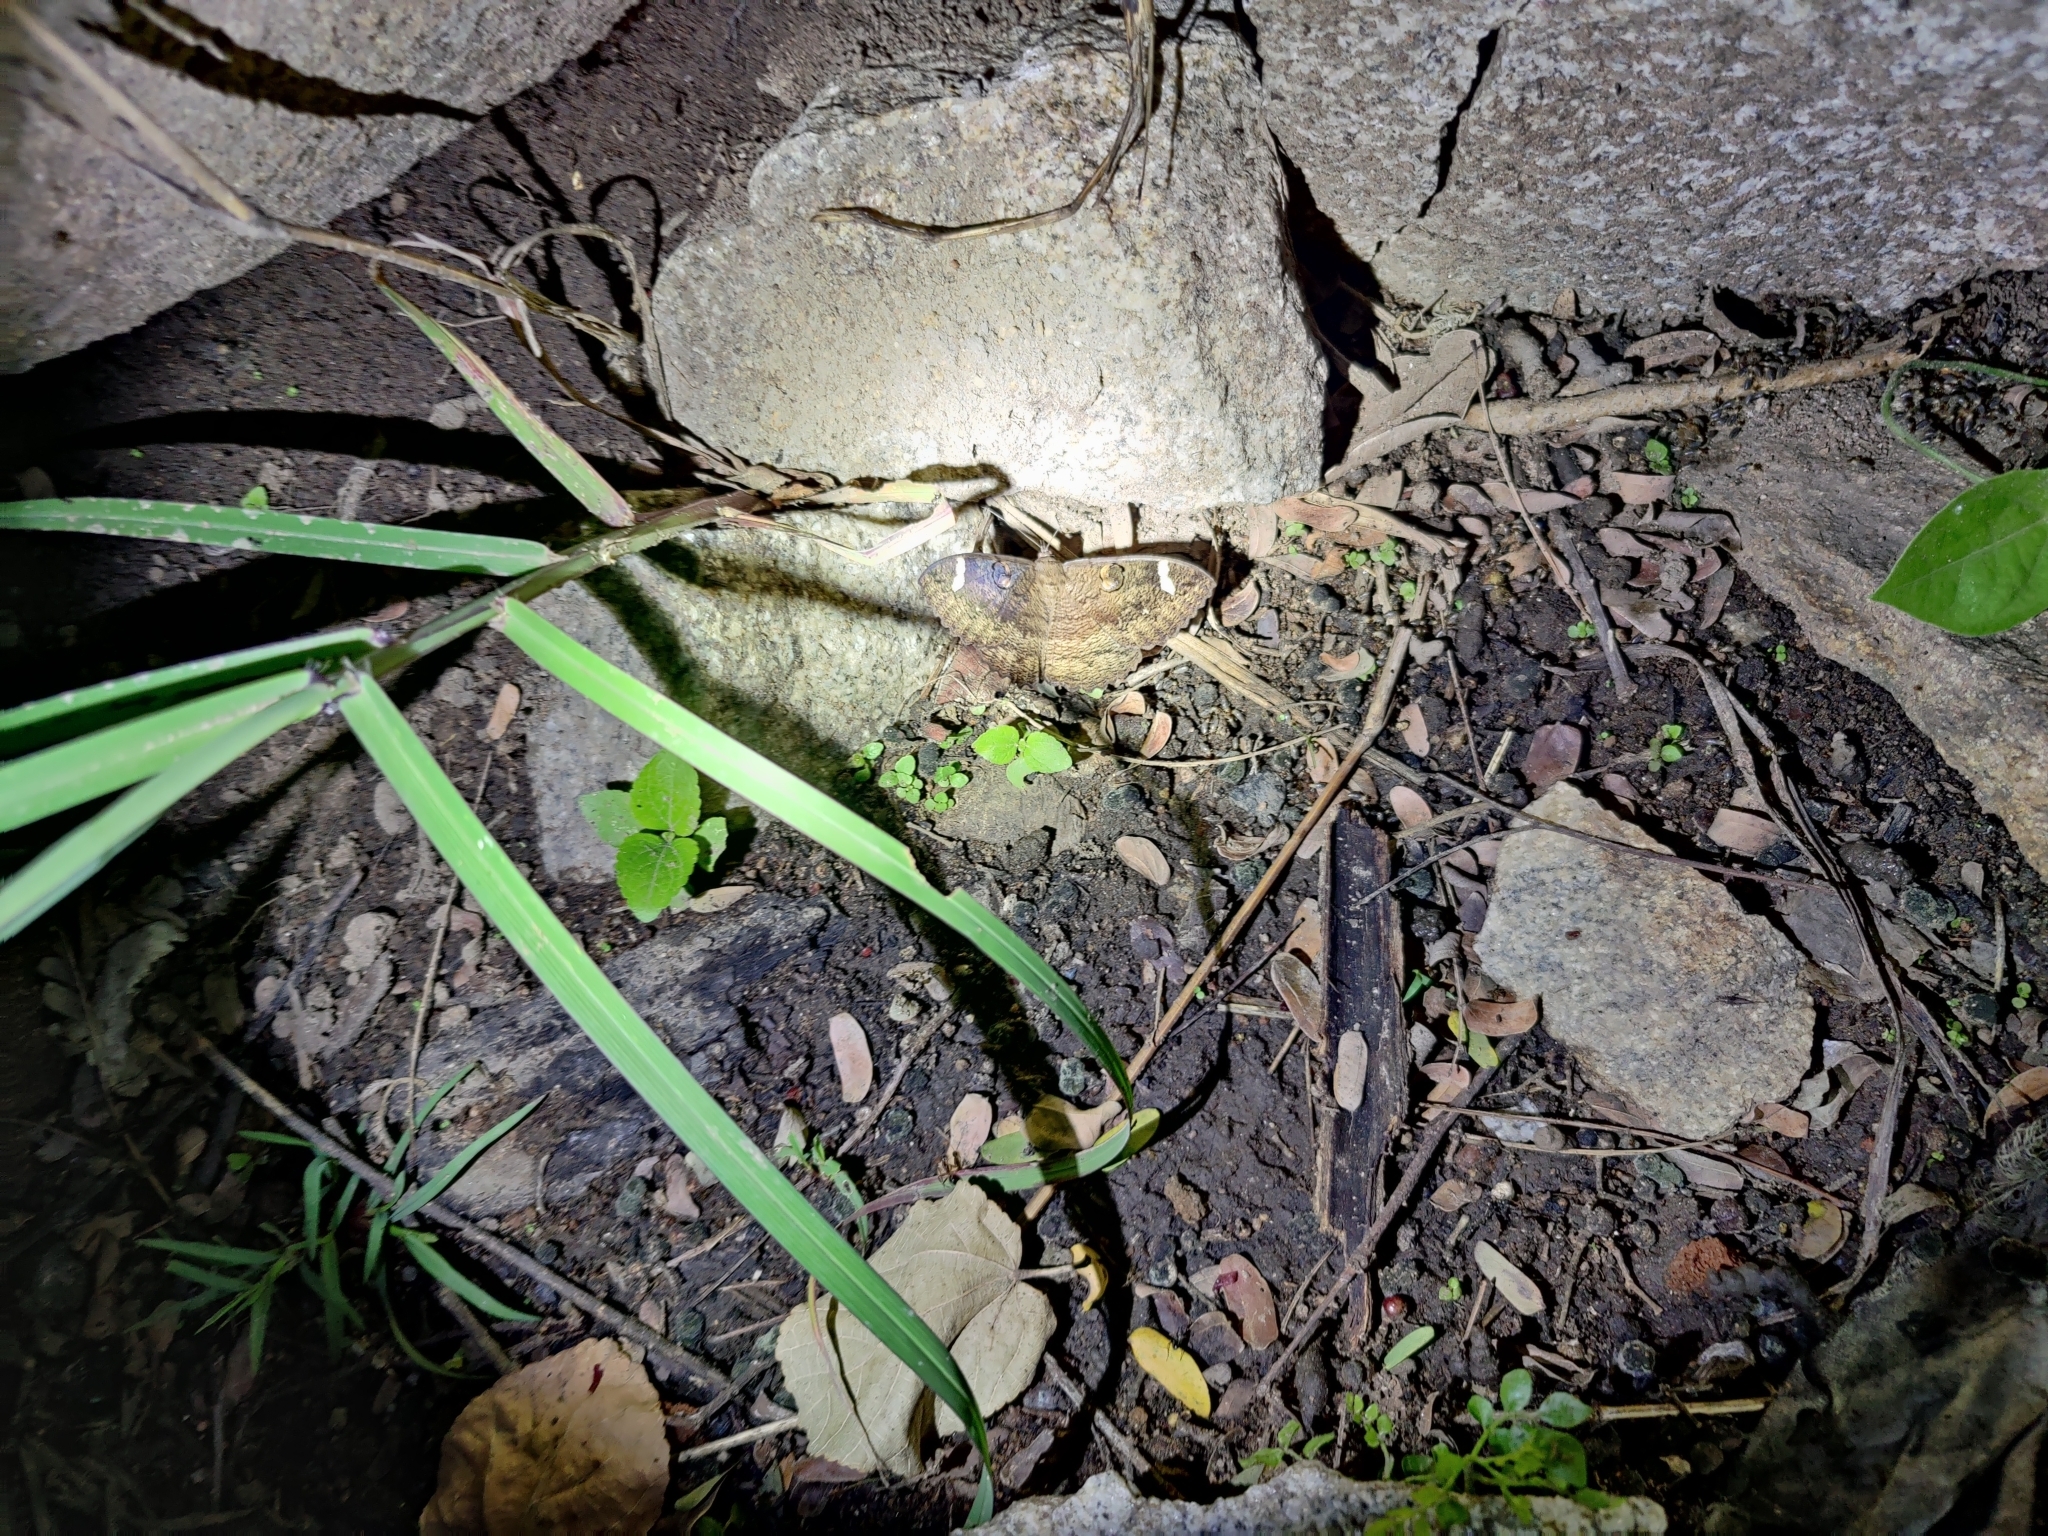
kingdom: Animalia
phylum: Arthropoda
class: Insecta
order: Lepidoptera
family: Erebidae
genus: Erebus
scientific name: Erebus hieroglyphica
